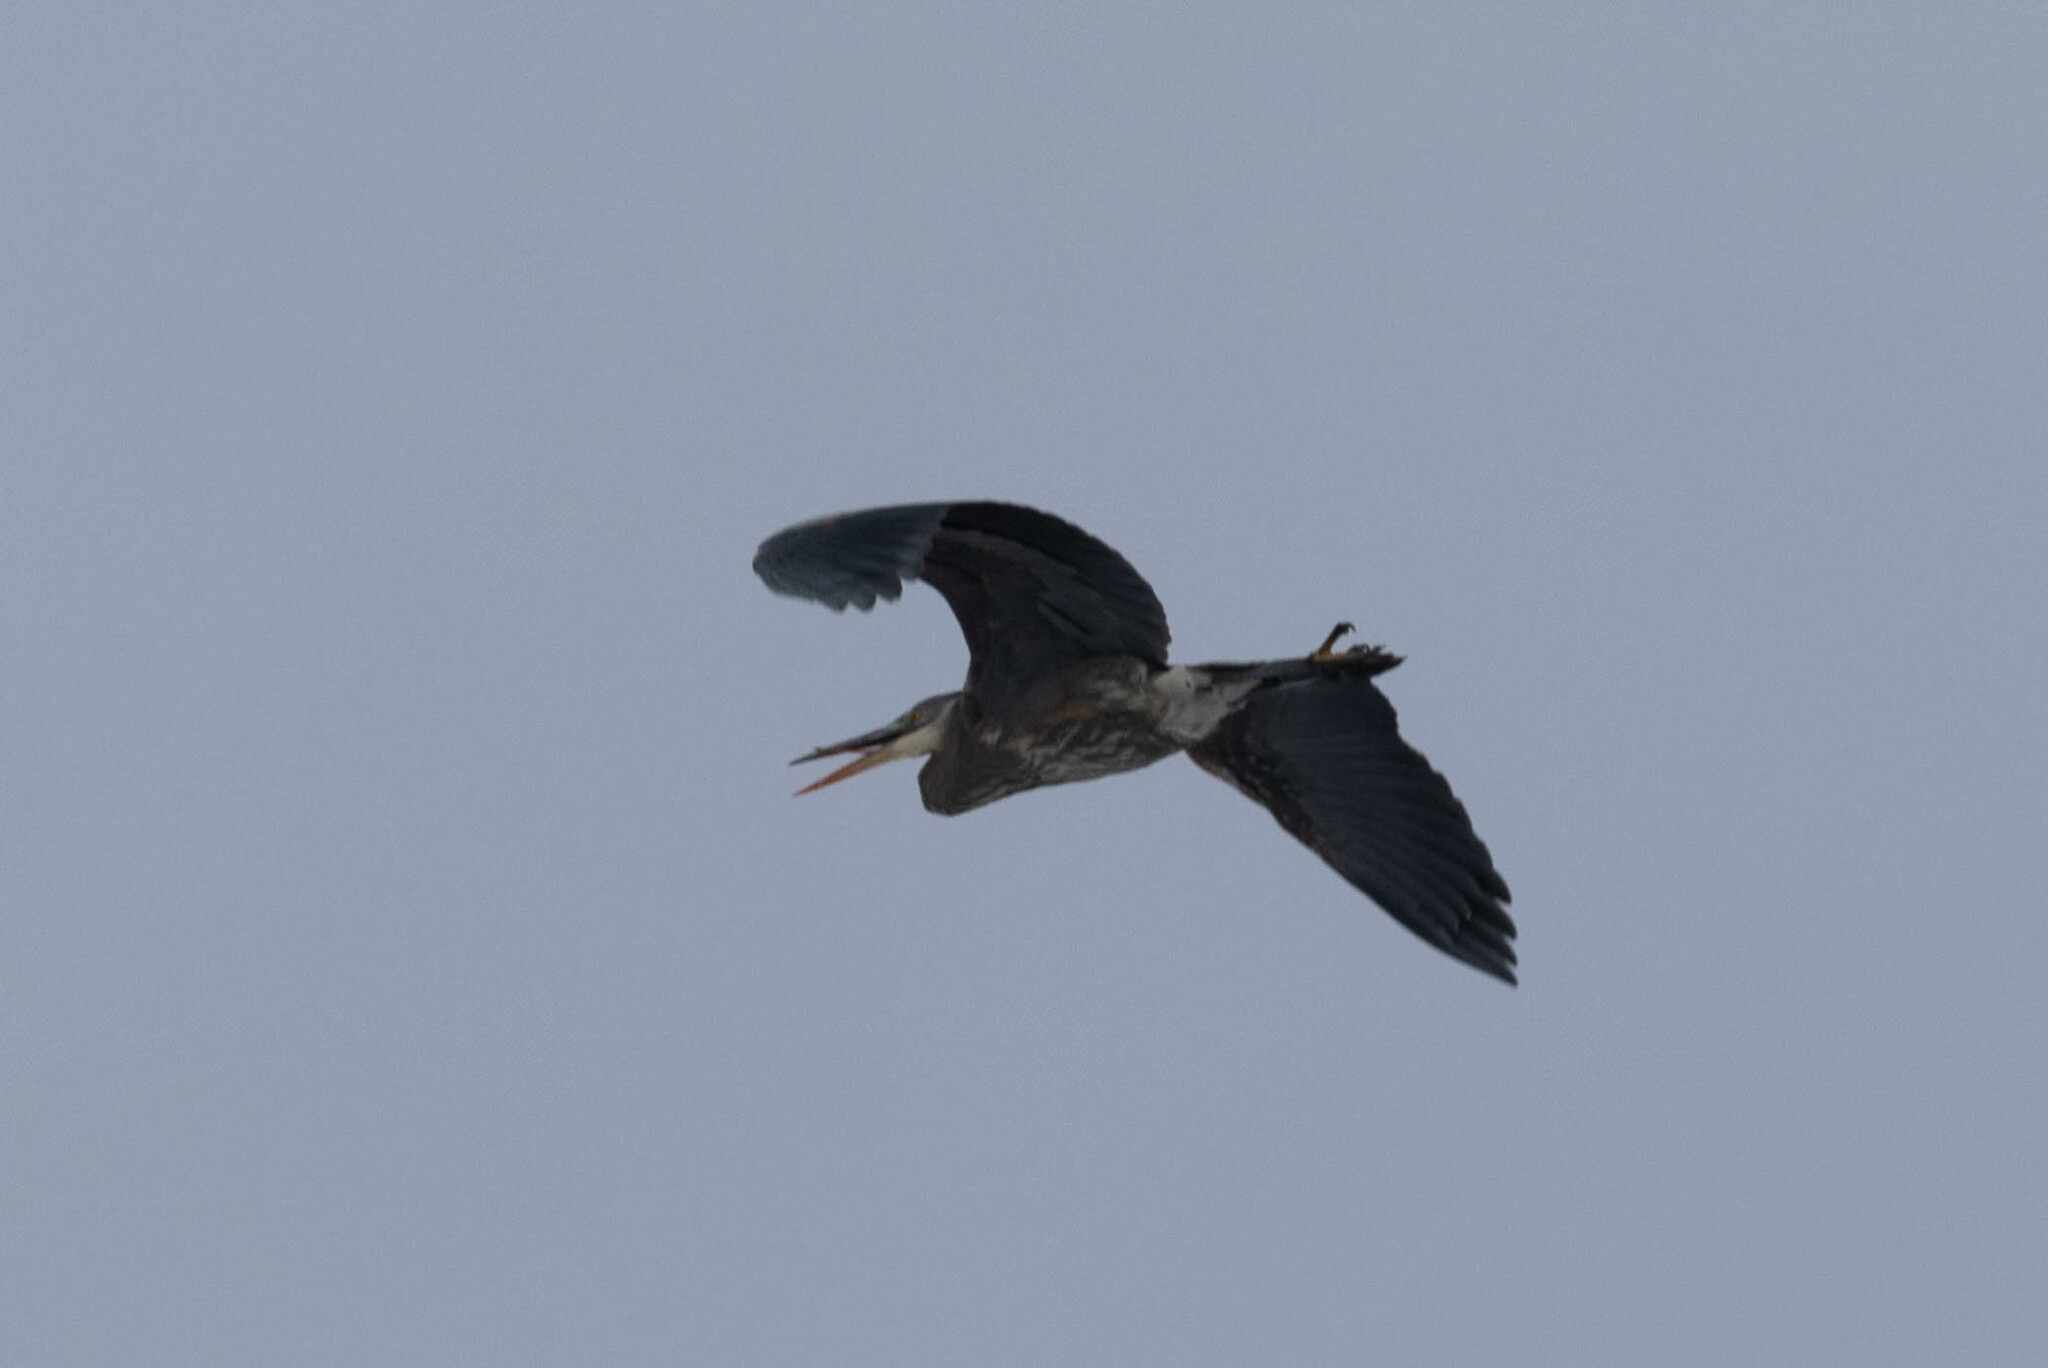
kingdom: Animalia
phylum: Chordata
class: Aves
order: Pelecaniformes
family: Ardeidae
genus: Ardea
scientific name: Ardea herodias
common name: Great blue heron
